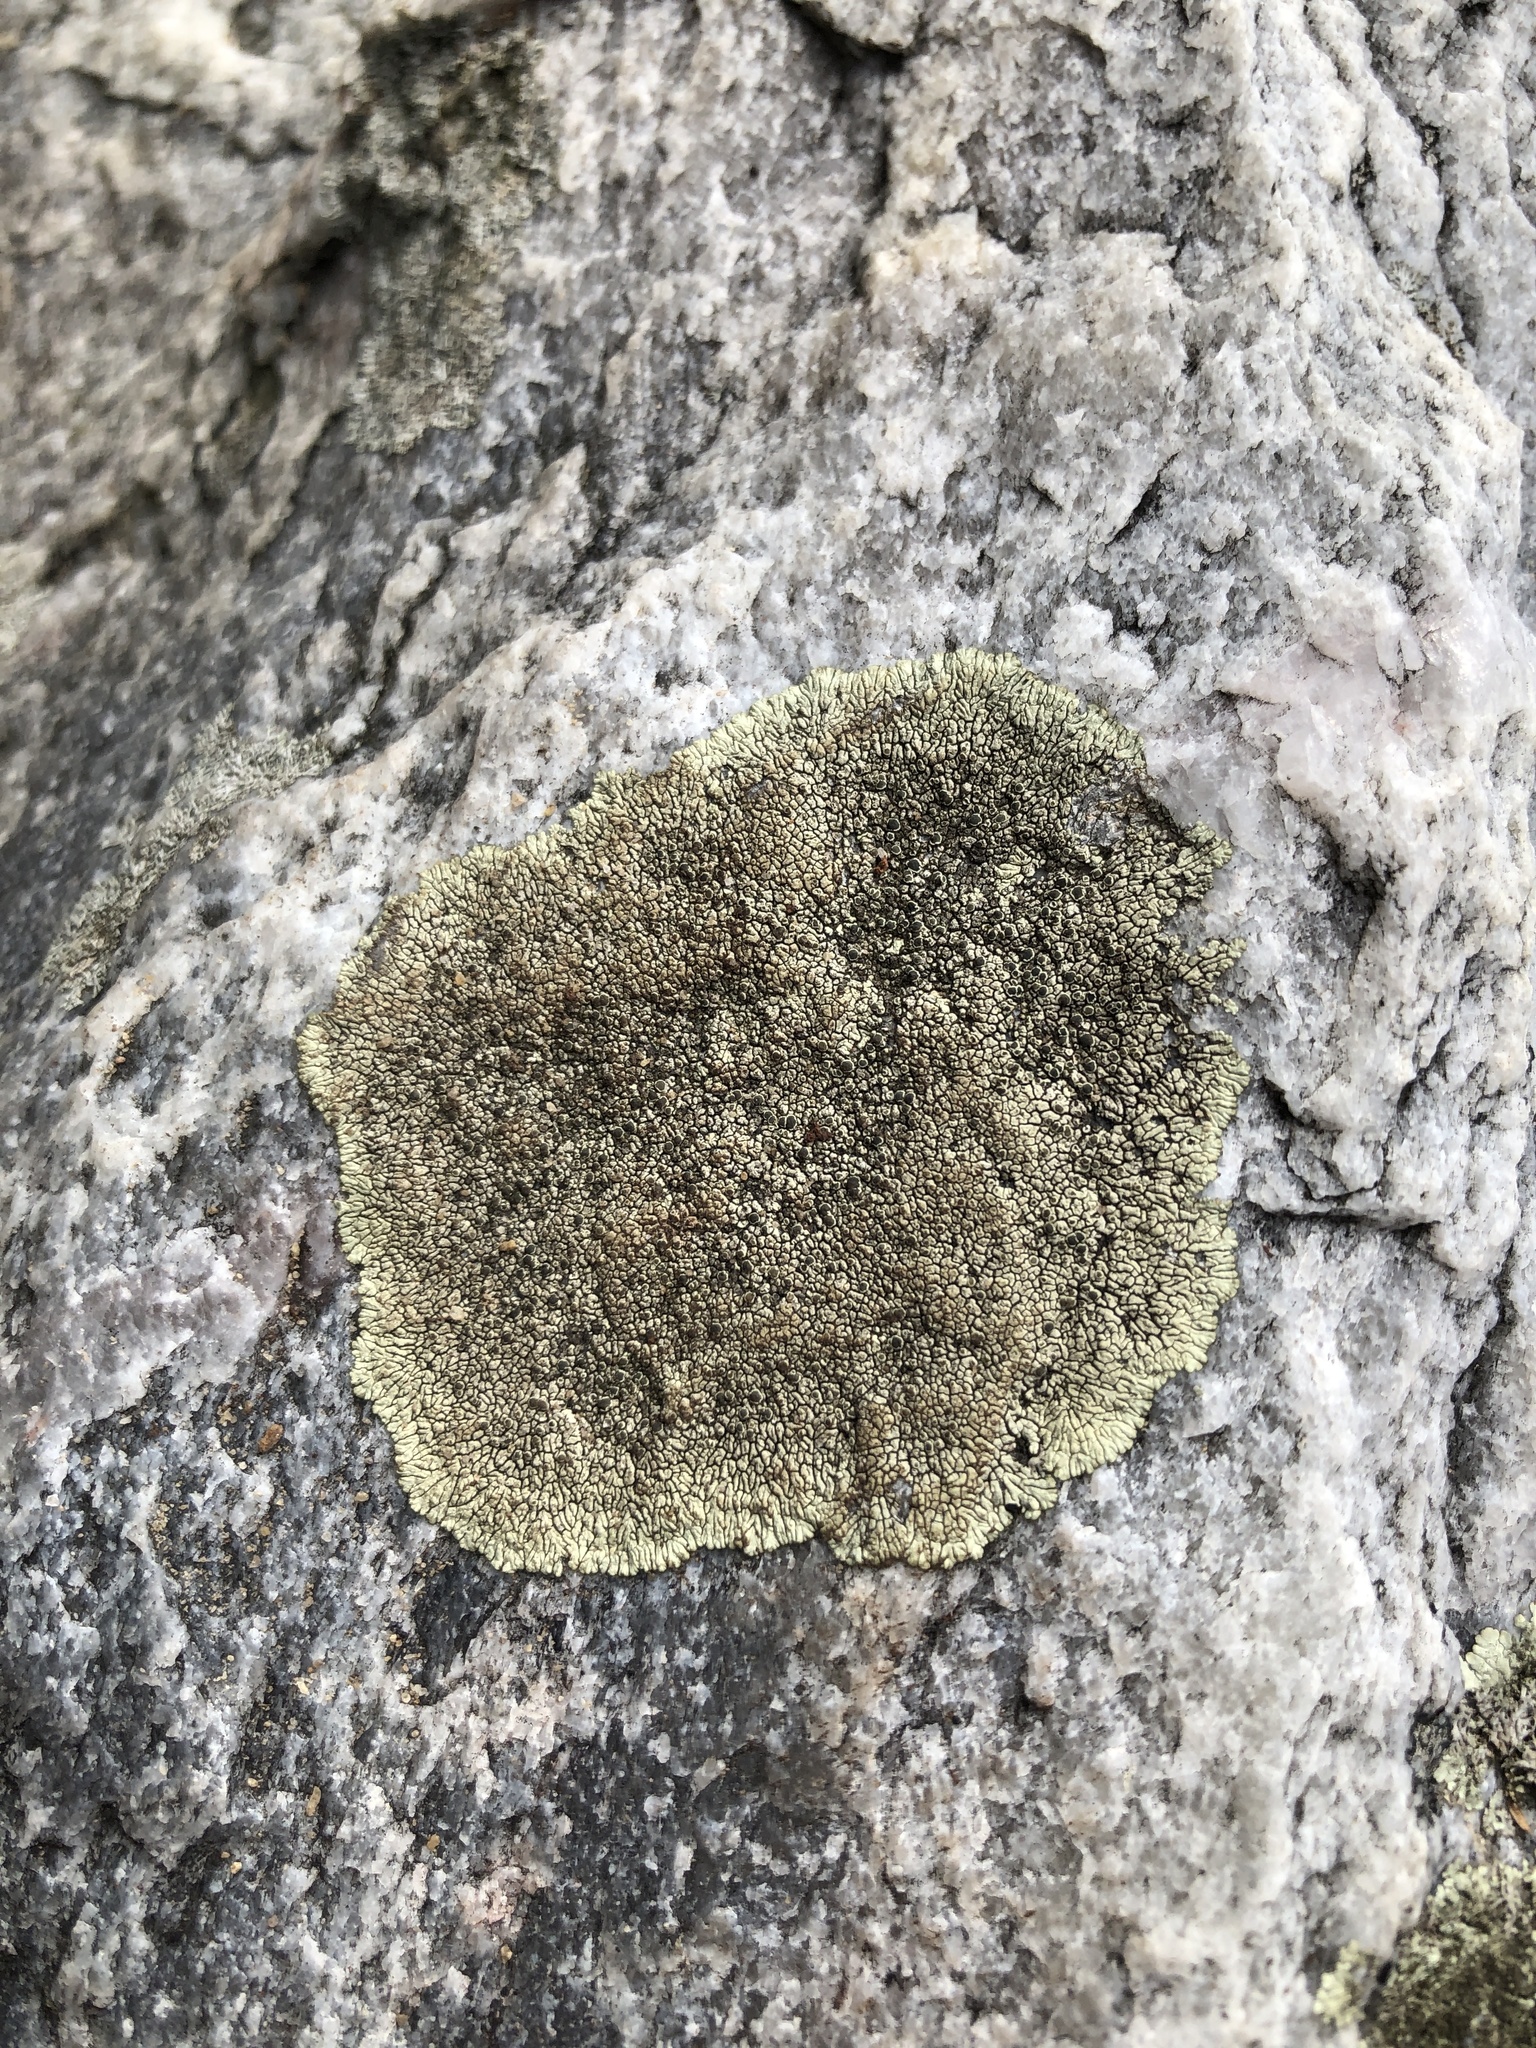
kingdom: Fungi
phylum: Ascomycota
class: Lecanoromycetes
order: Caliciales
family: Caliciaceae
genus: Dimelaena
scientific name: Dimelaena oreina
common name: Golden moonglow lichen
